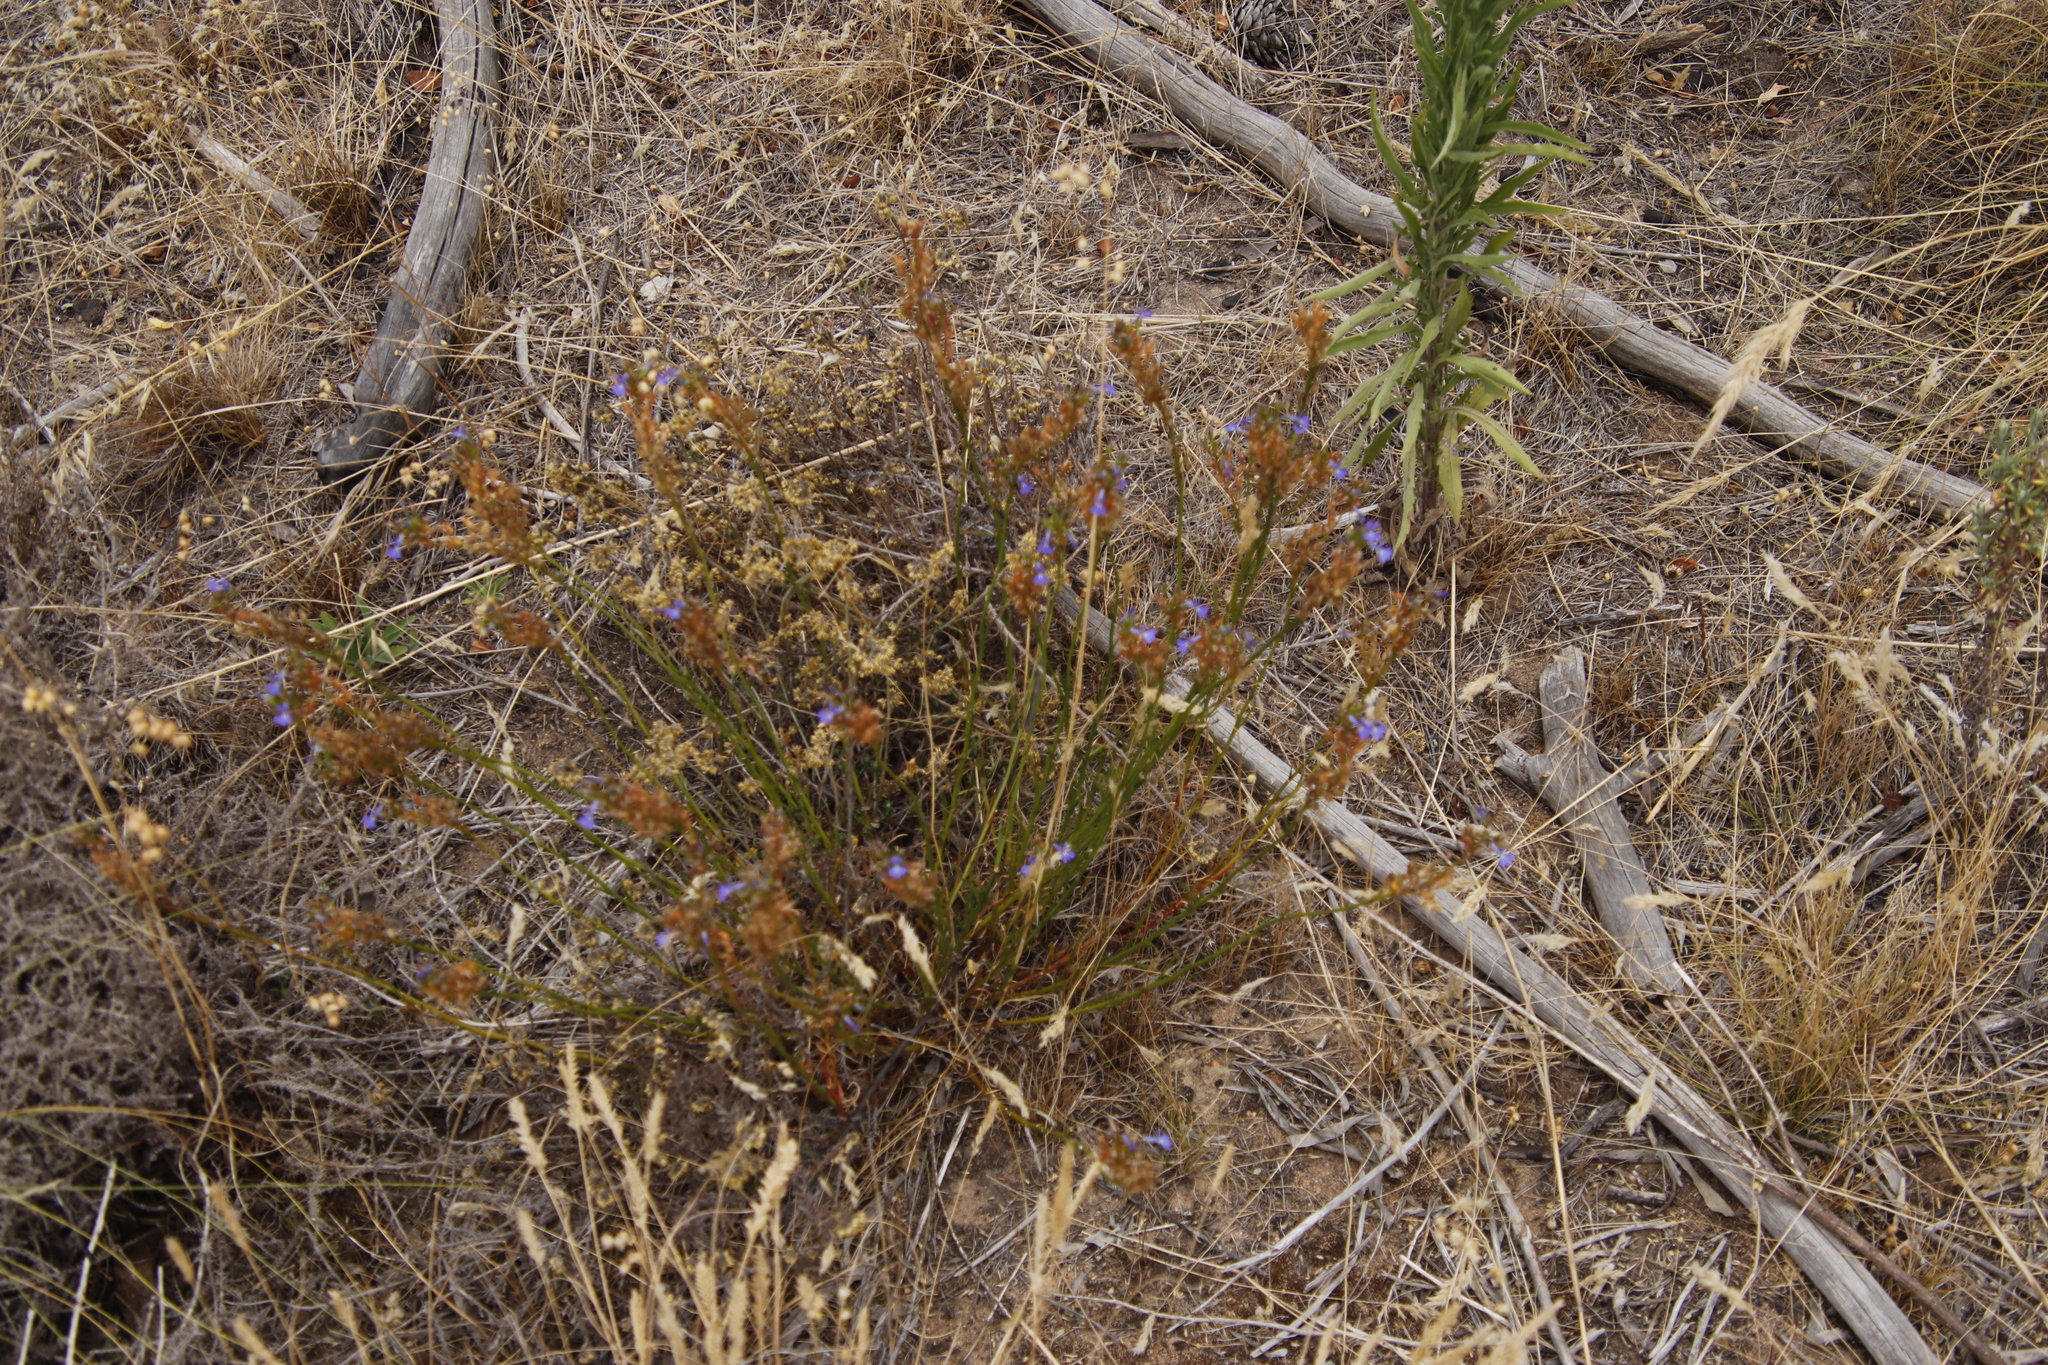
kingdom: Plantae
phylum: Tracheophyta
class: Magnoliopsida
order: Asterales
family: Campanulaceae
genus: Lobelia
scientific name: Lobelia comosa
